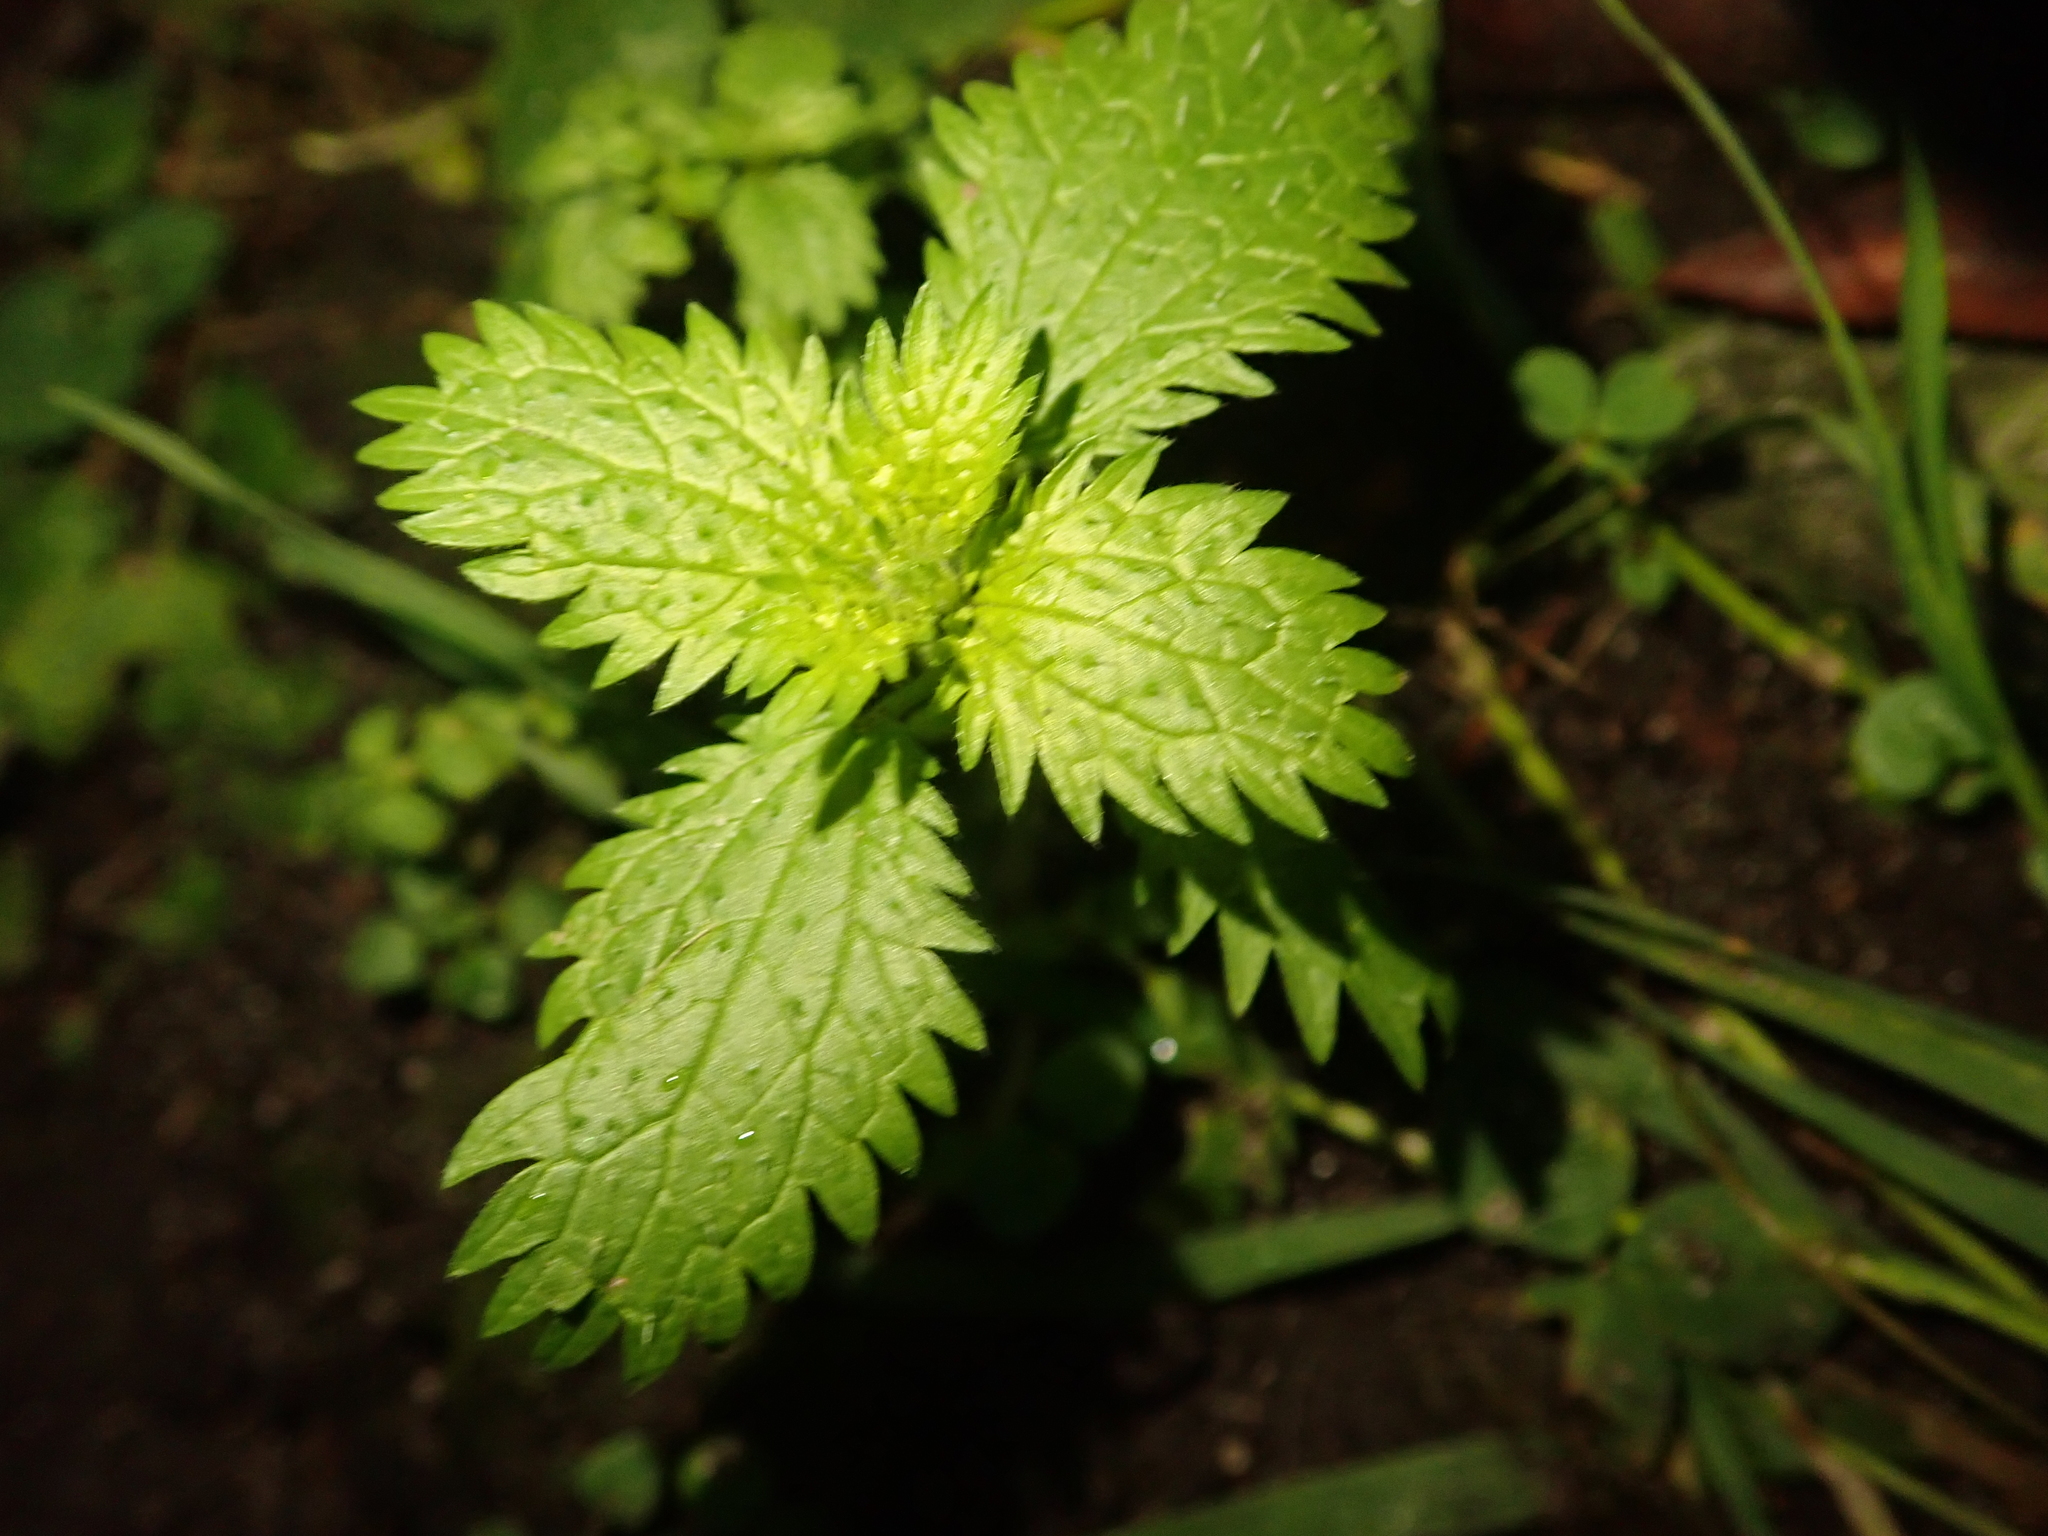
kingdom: Plantae
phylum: Tracheophyta
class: Magnoliopsida
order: Rosales
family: Urticaceae
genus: Urtica
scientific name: Urtica urens
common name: Dwarf nettle
